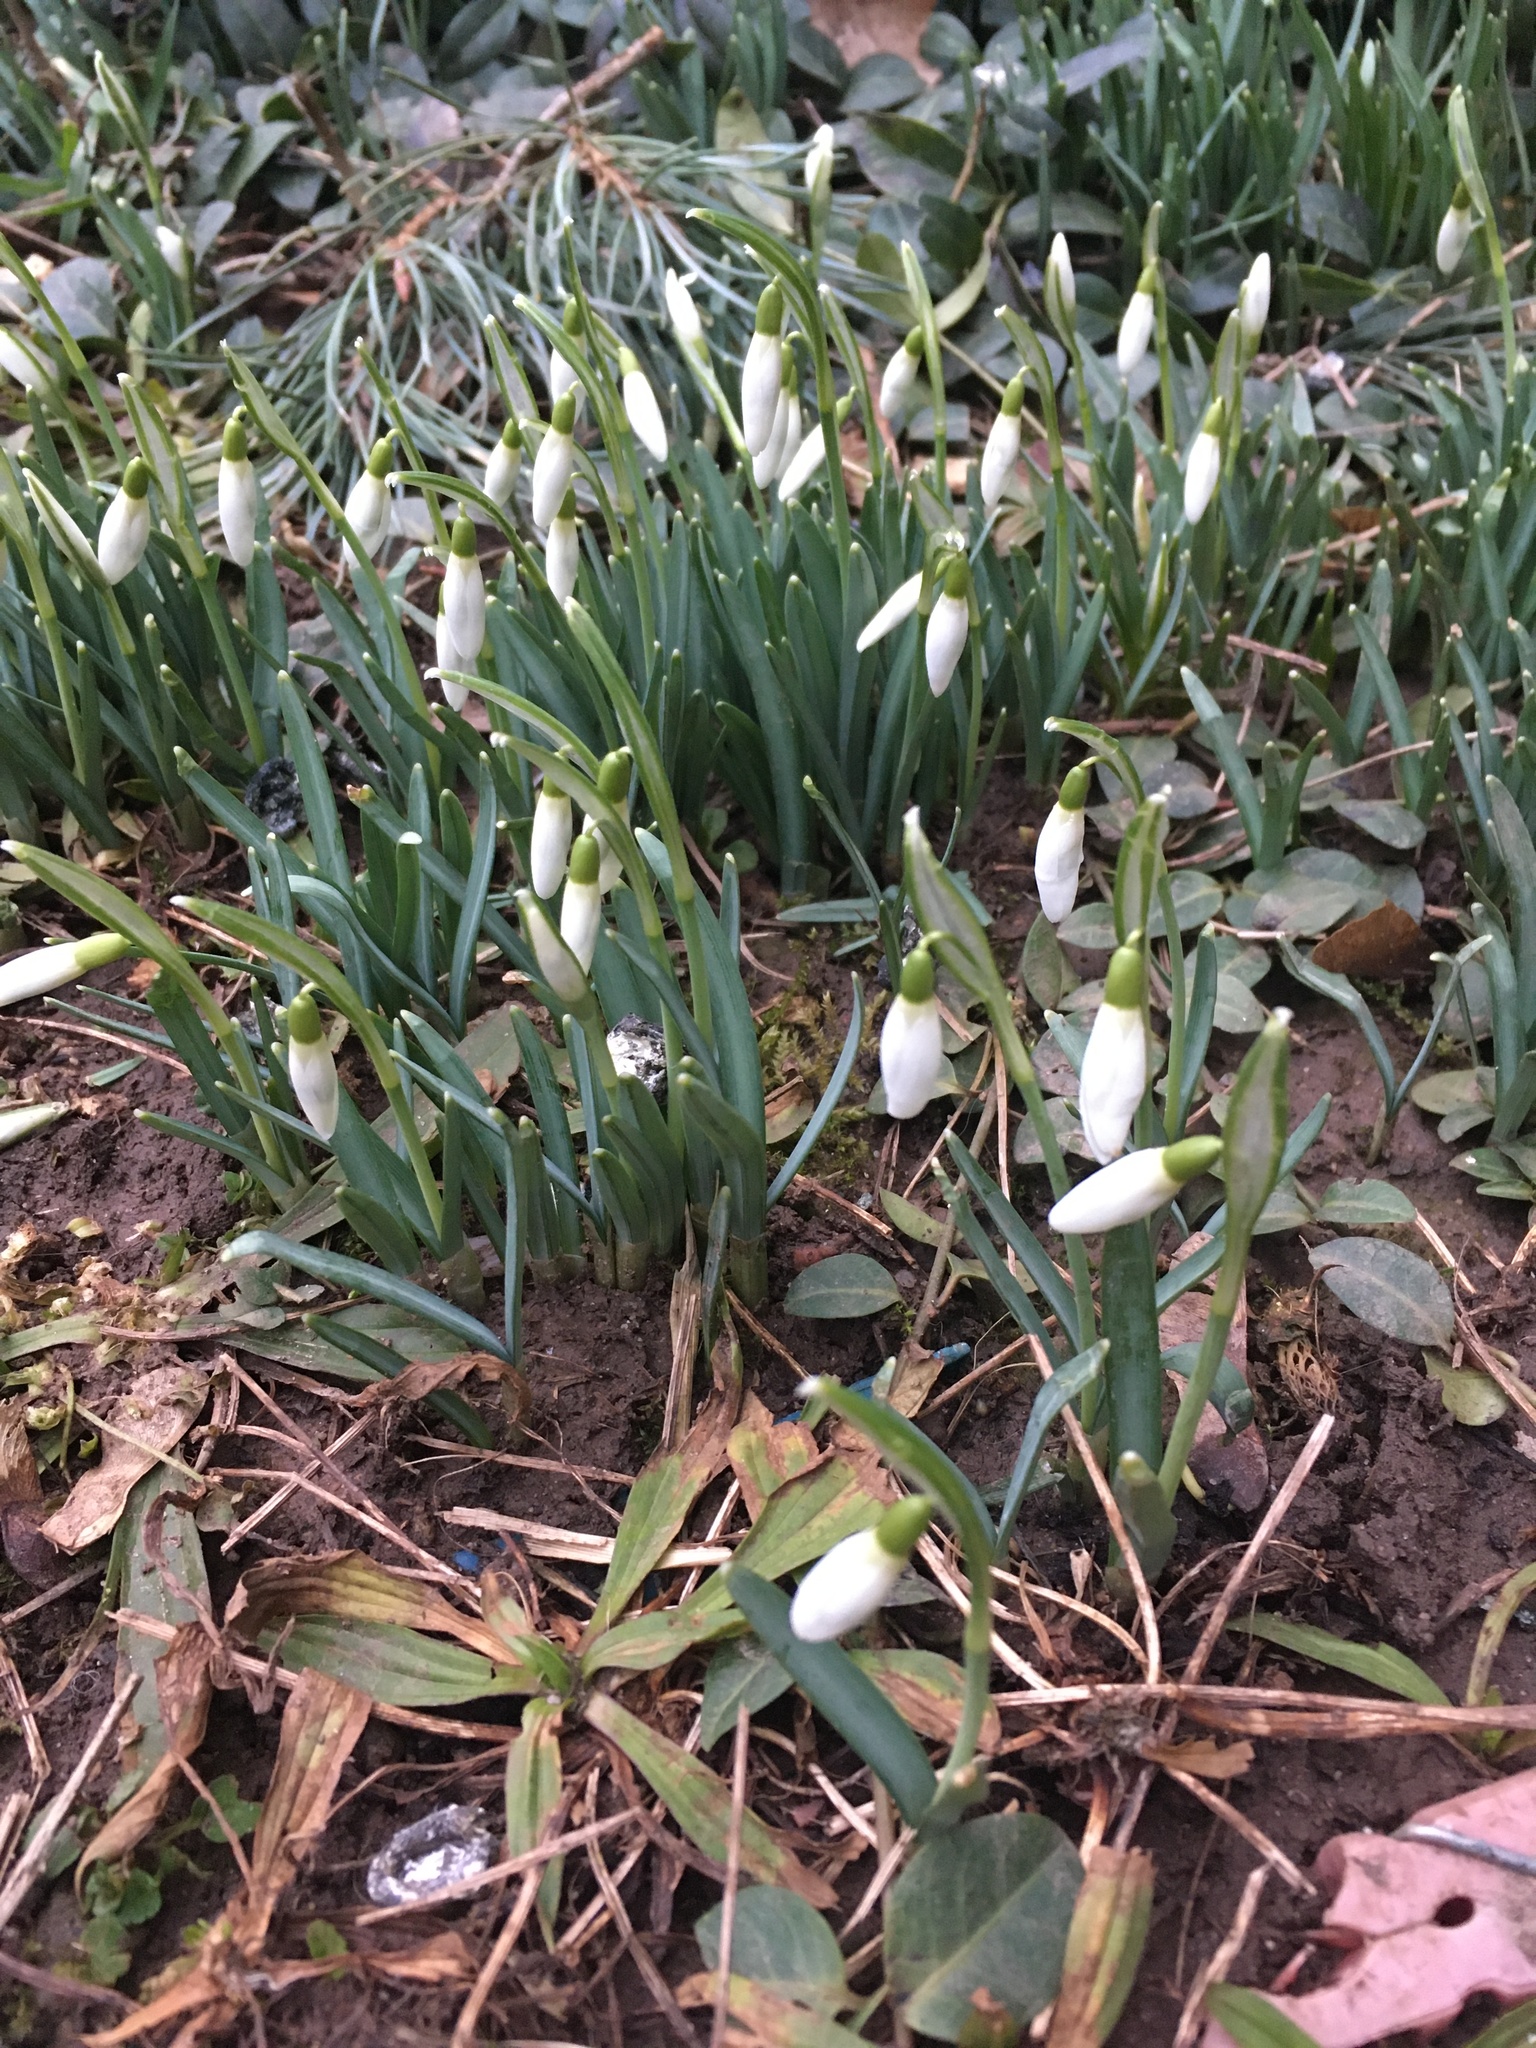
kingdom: Plantae
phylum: Tracheophyta
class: Liliopsida
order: Asparagales
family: Amaryllidaceae
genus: Galanthus
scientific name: Galanthus nivalis
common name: Snowdrop
